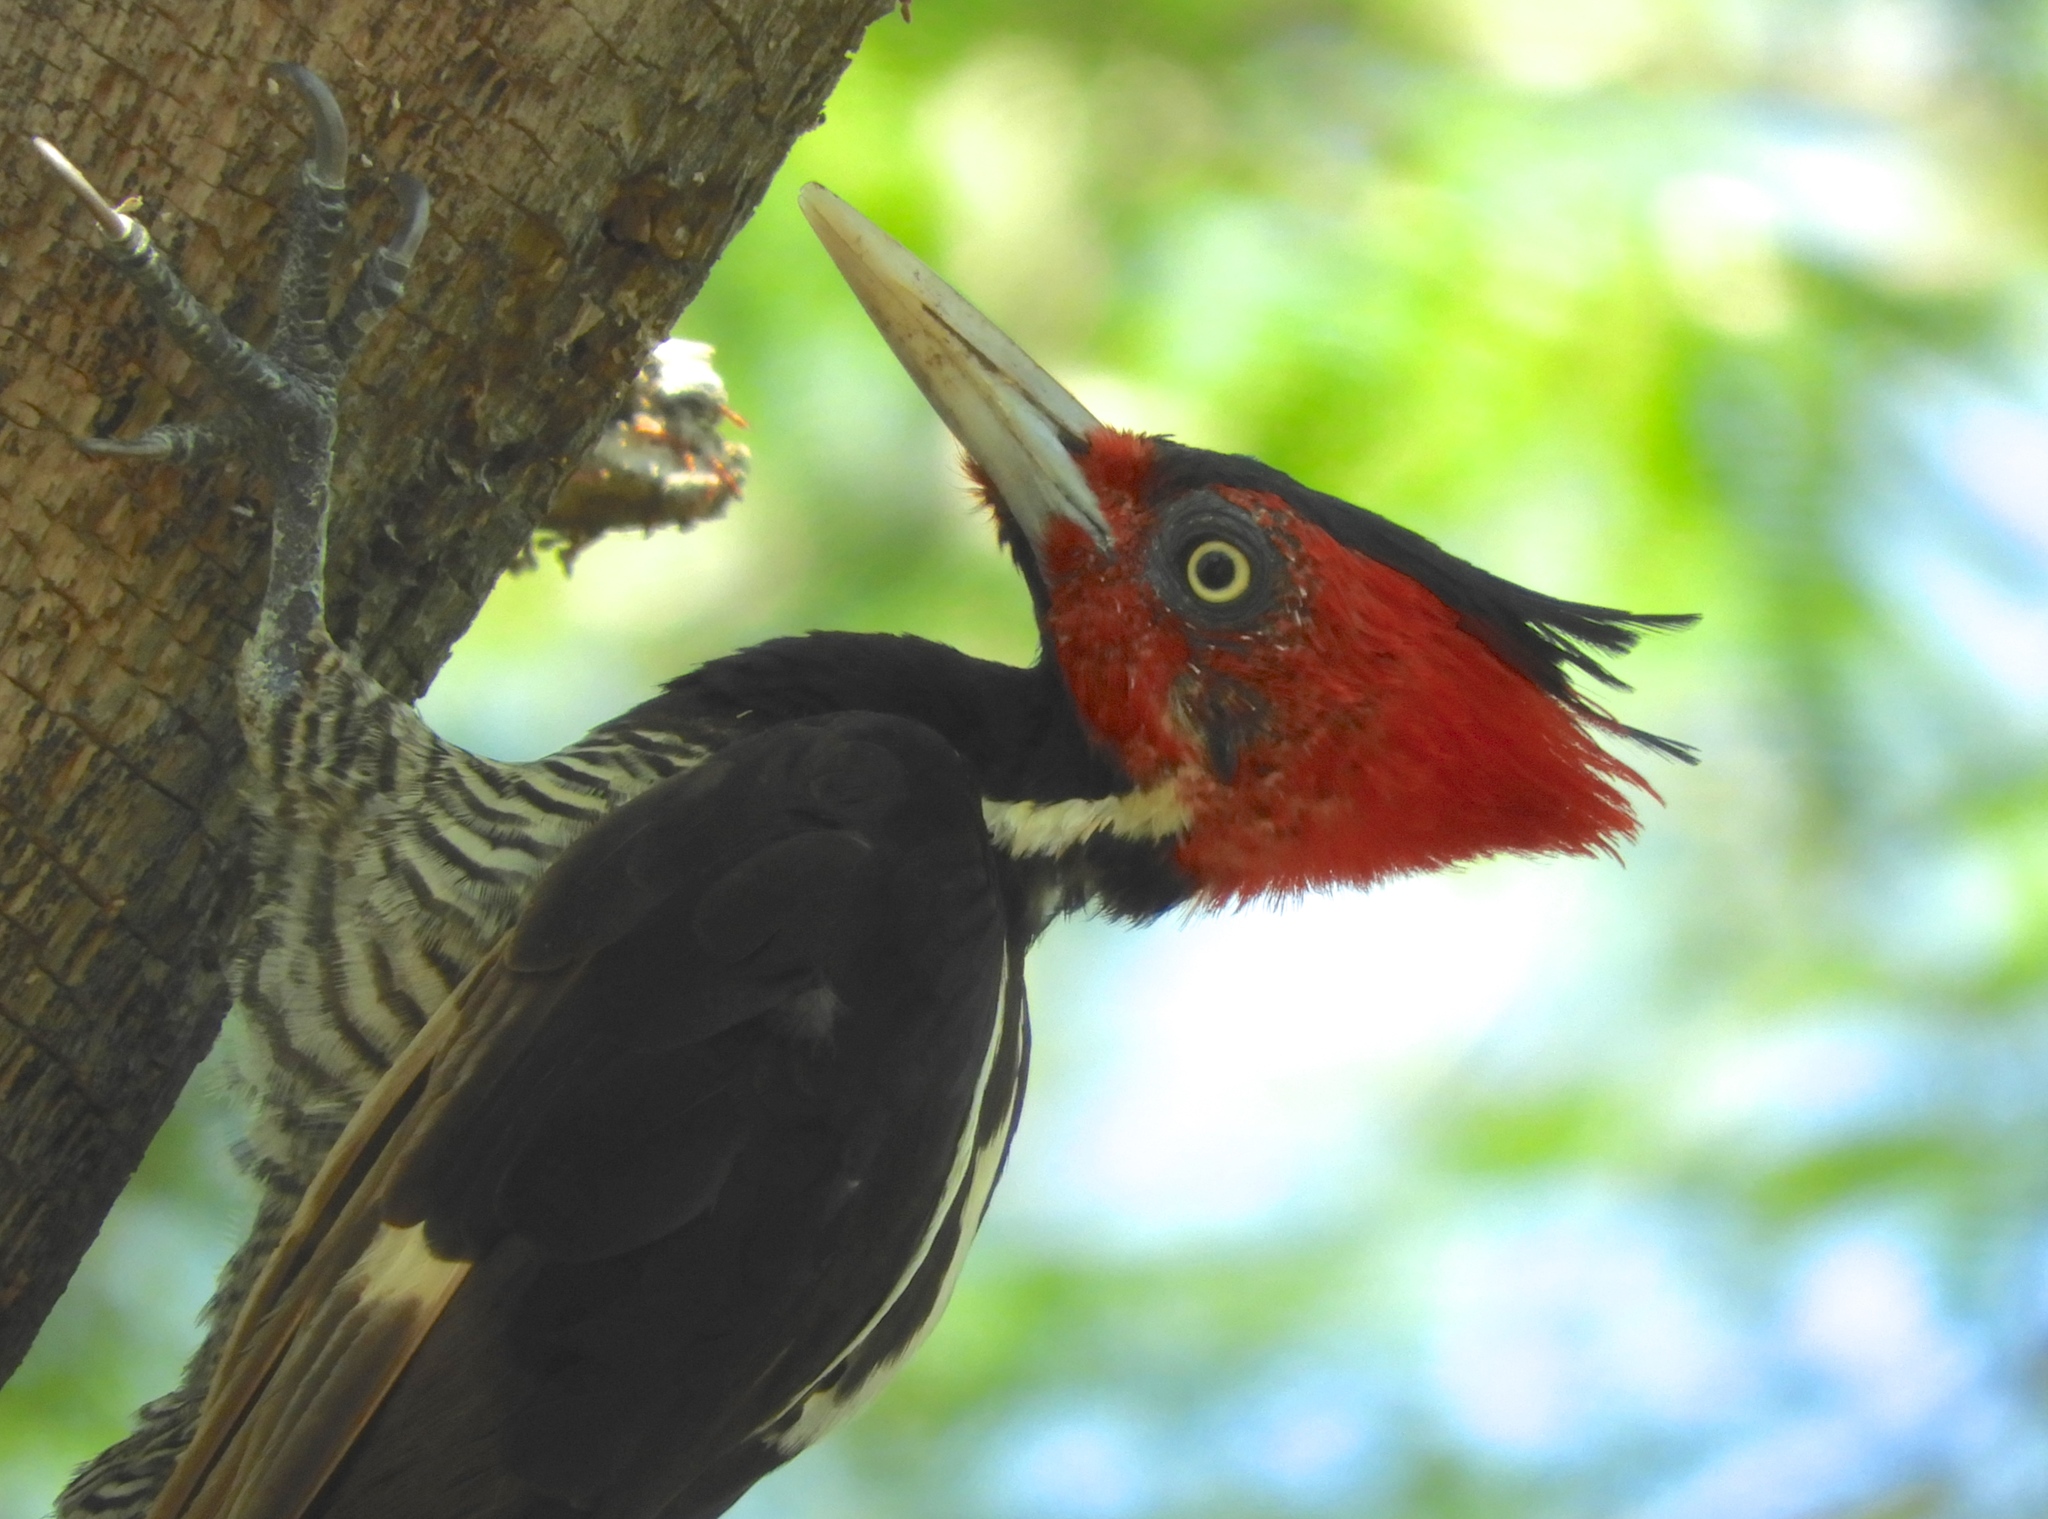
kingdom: Animalia
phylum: Chordata
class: Aves
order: Piciformes
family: Picidae
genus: Campephilus
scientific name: Campephilus guatemalensis
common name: Pale-billed woodpecker
